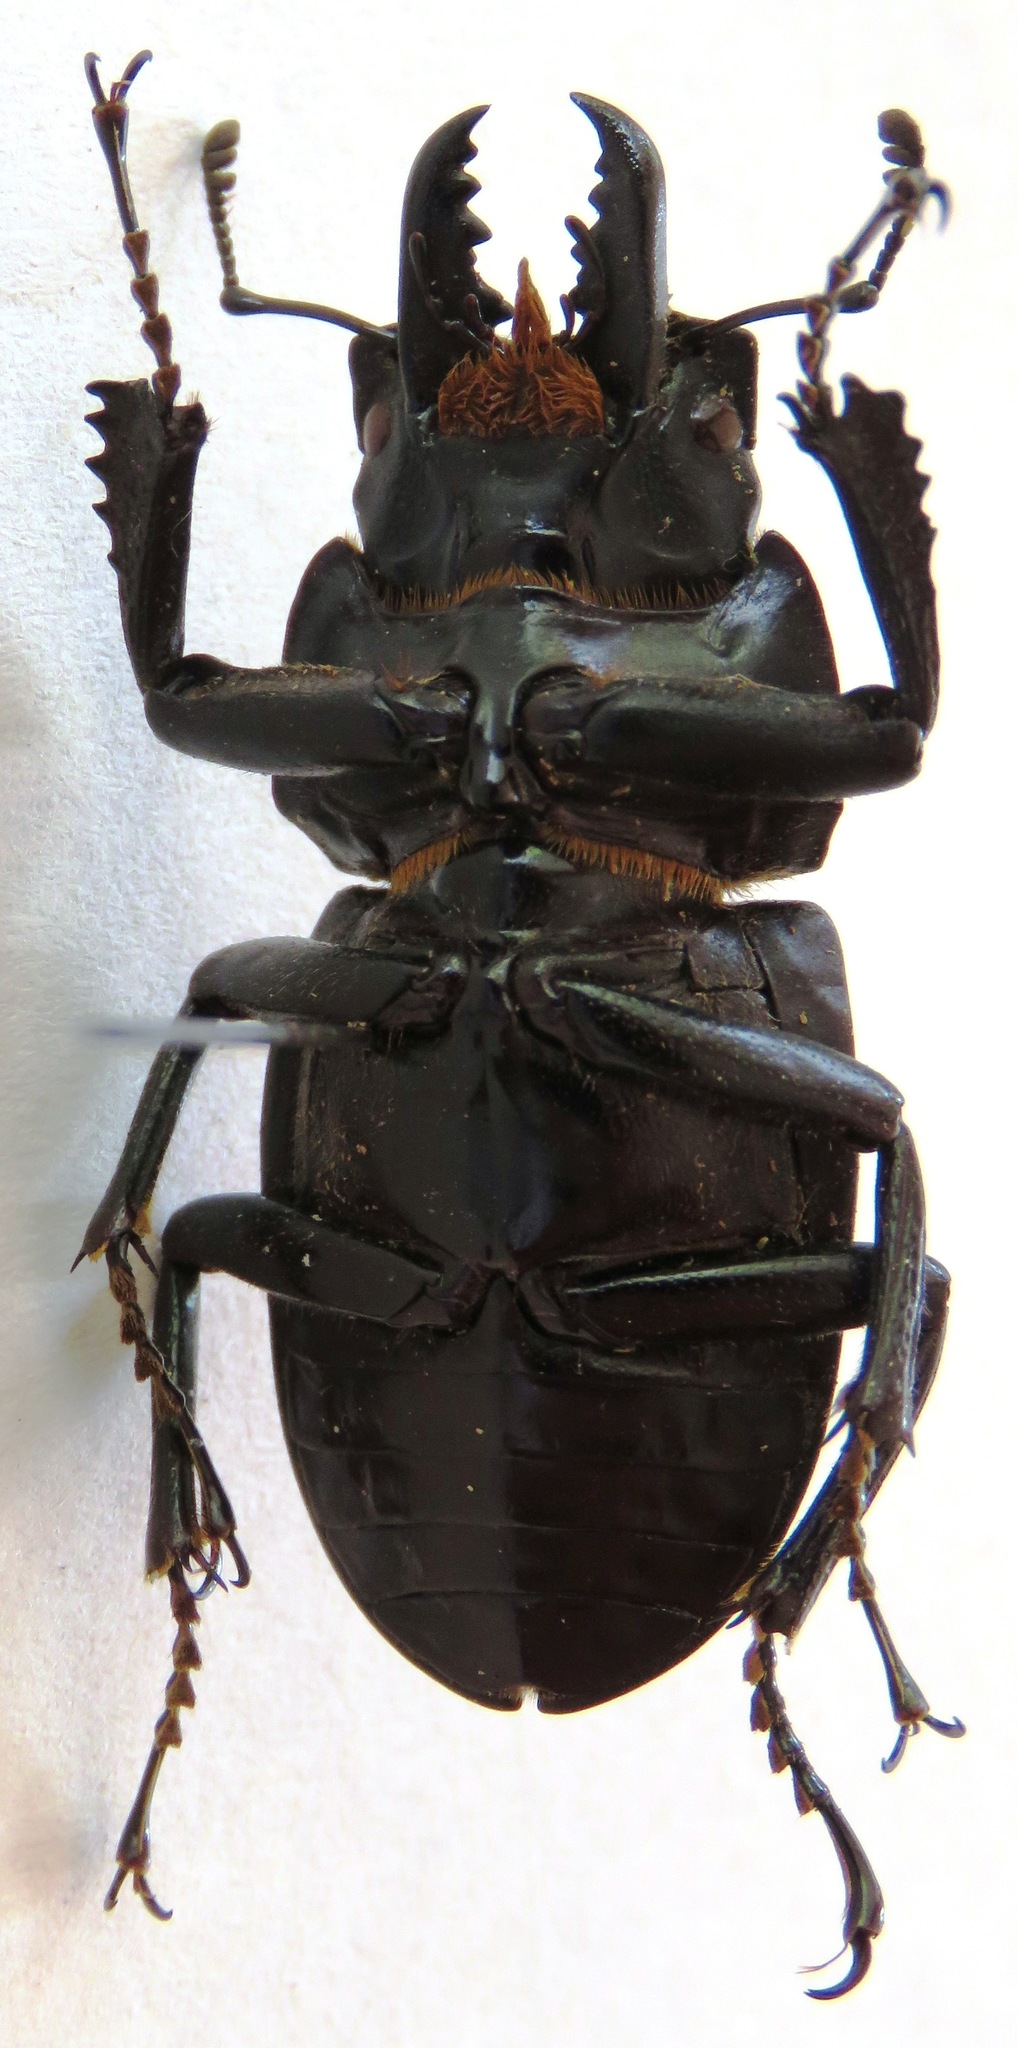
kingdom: Animalia
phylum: Arthropoda
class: Insecta
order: Coleoptera
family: Lucanidae
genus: Neolucanus
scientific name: Neolucanus vicinus
